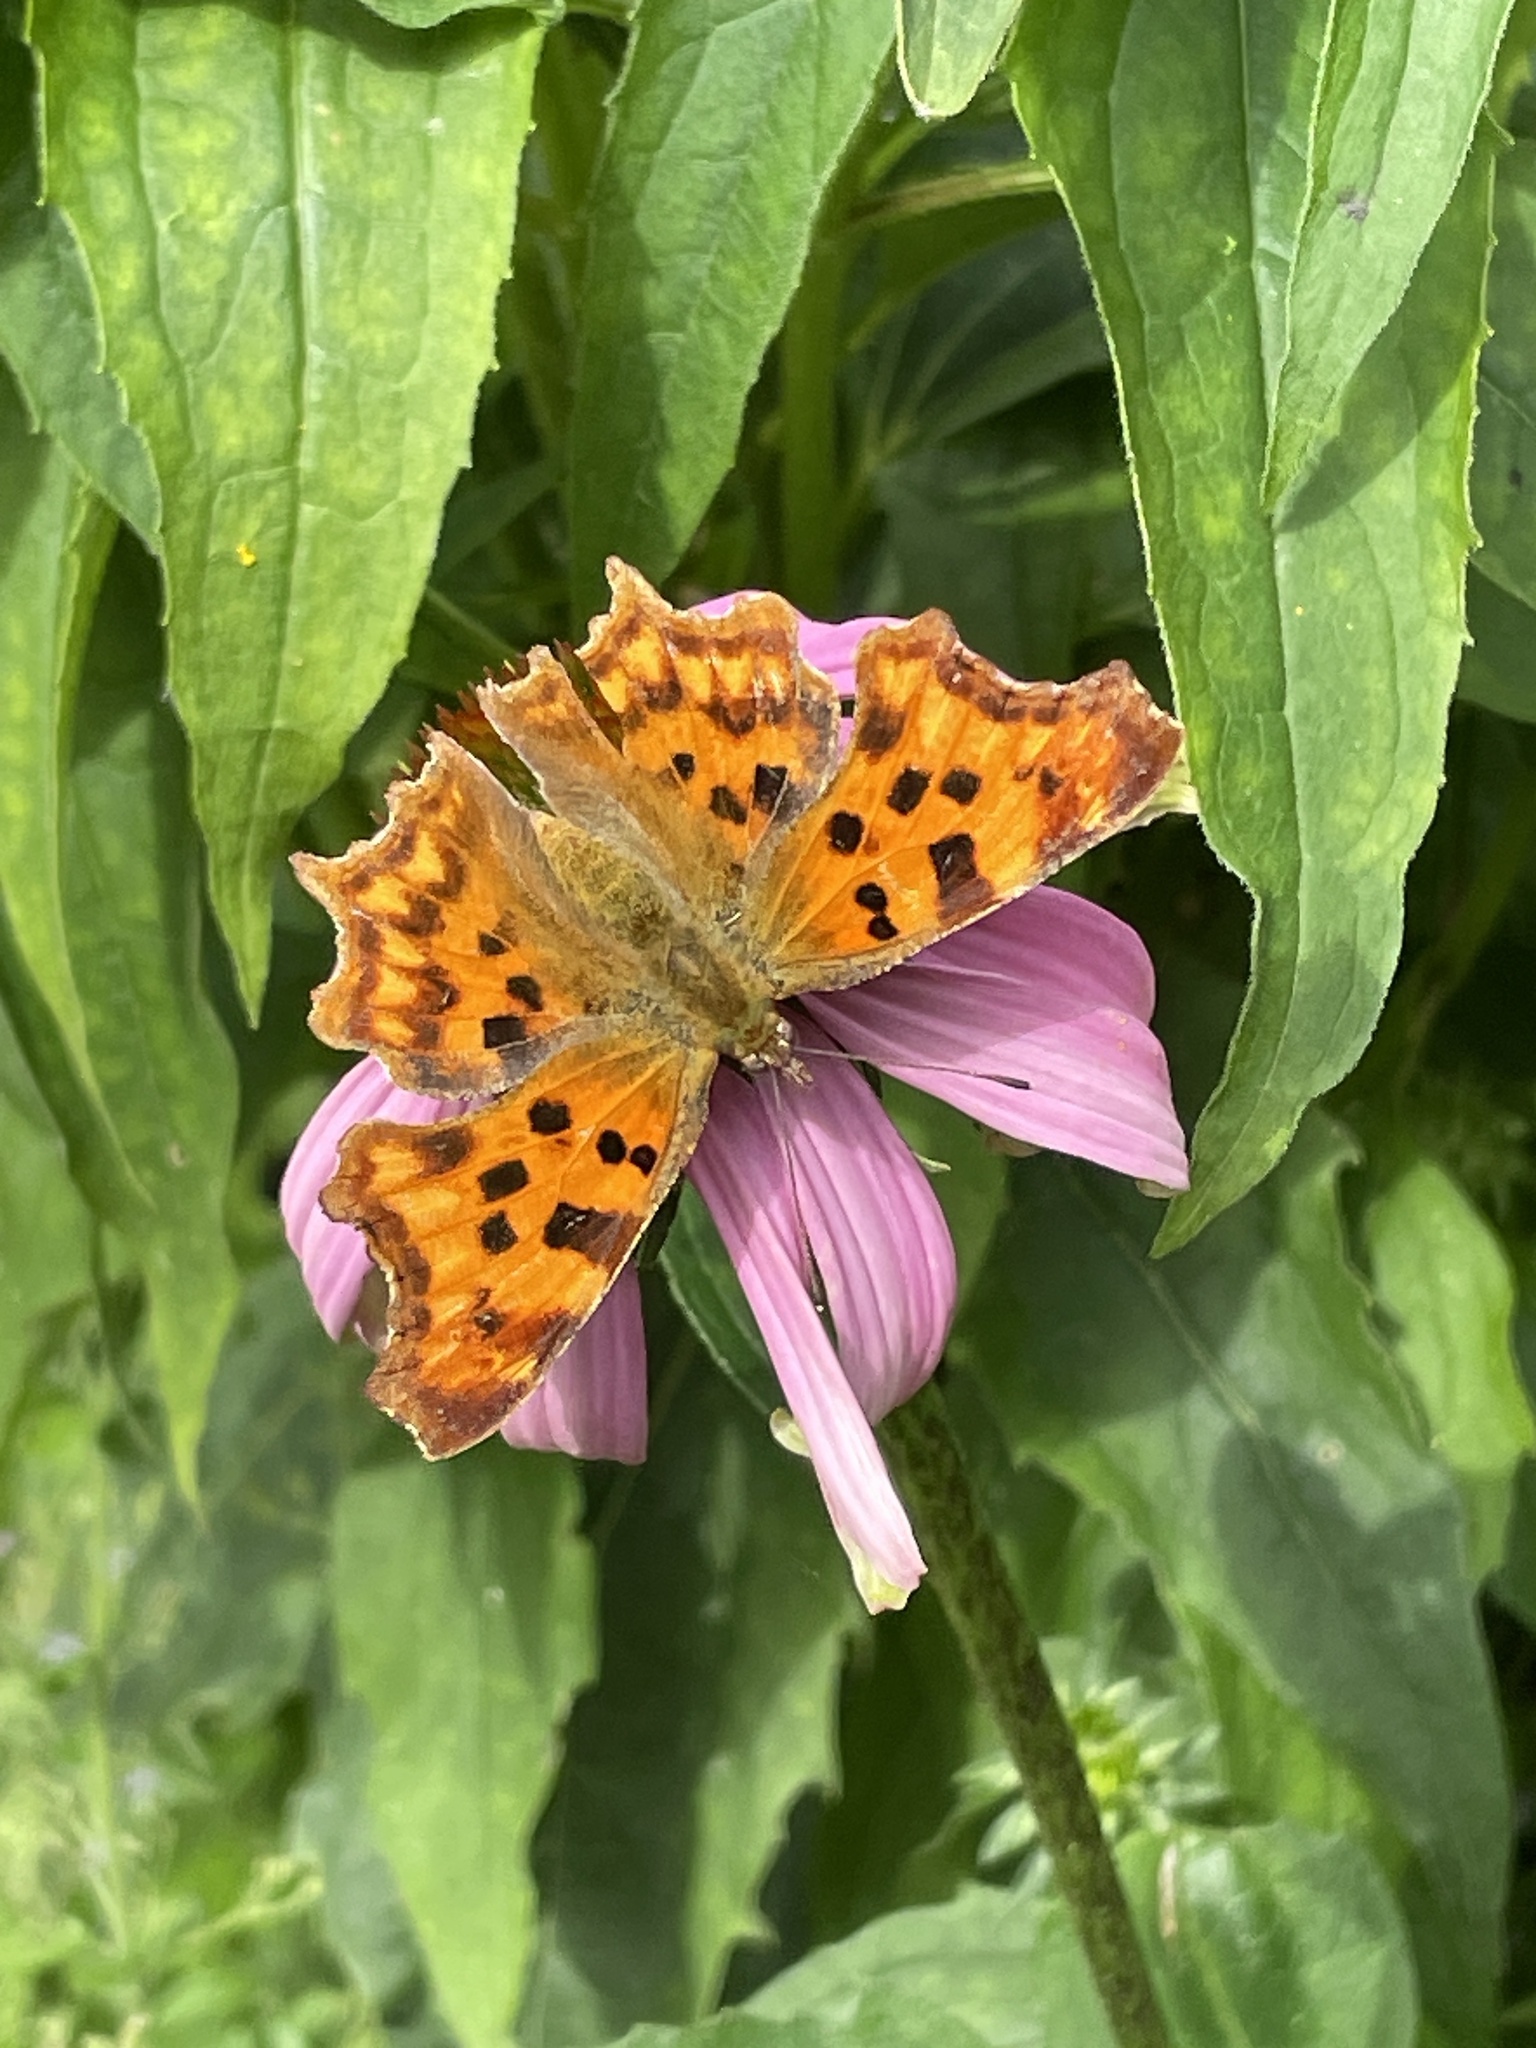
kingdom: Animalia
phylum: Arthropoda
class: Insecta
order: Lepidoptera
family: Nymphalidae
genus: Polygonia
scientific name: Polygonia c-album
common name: Comma
